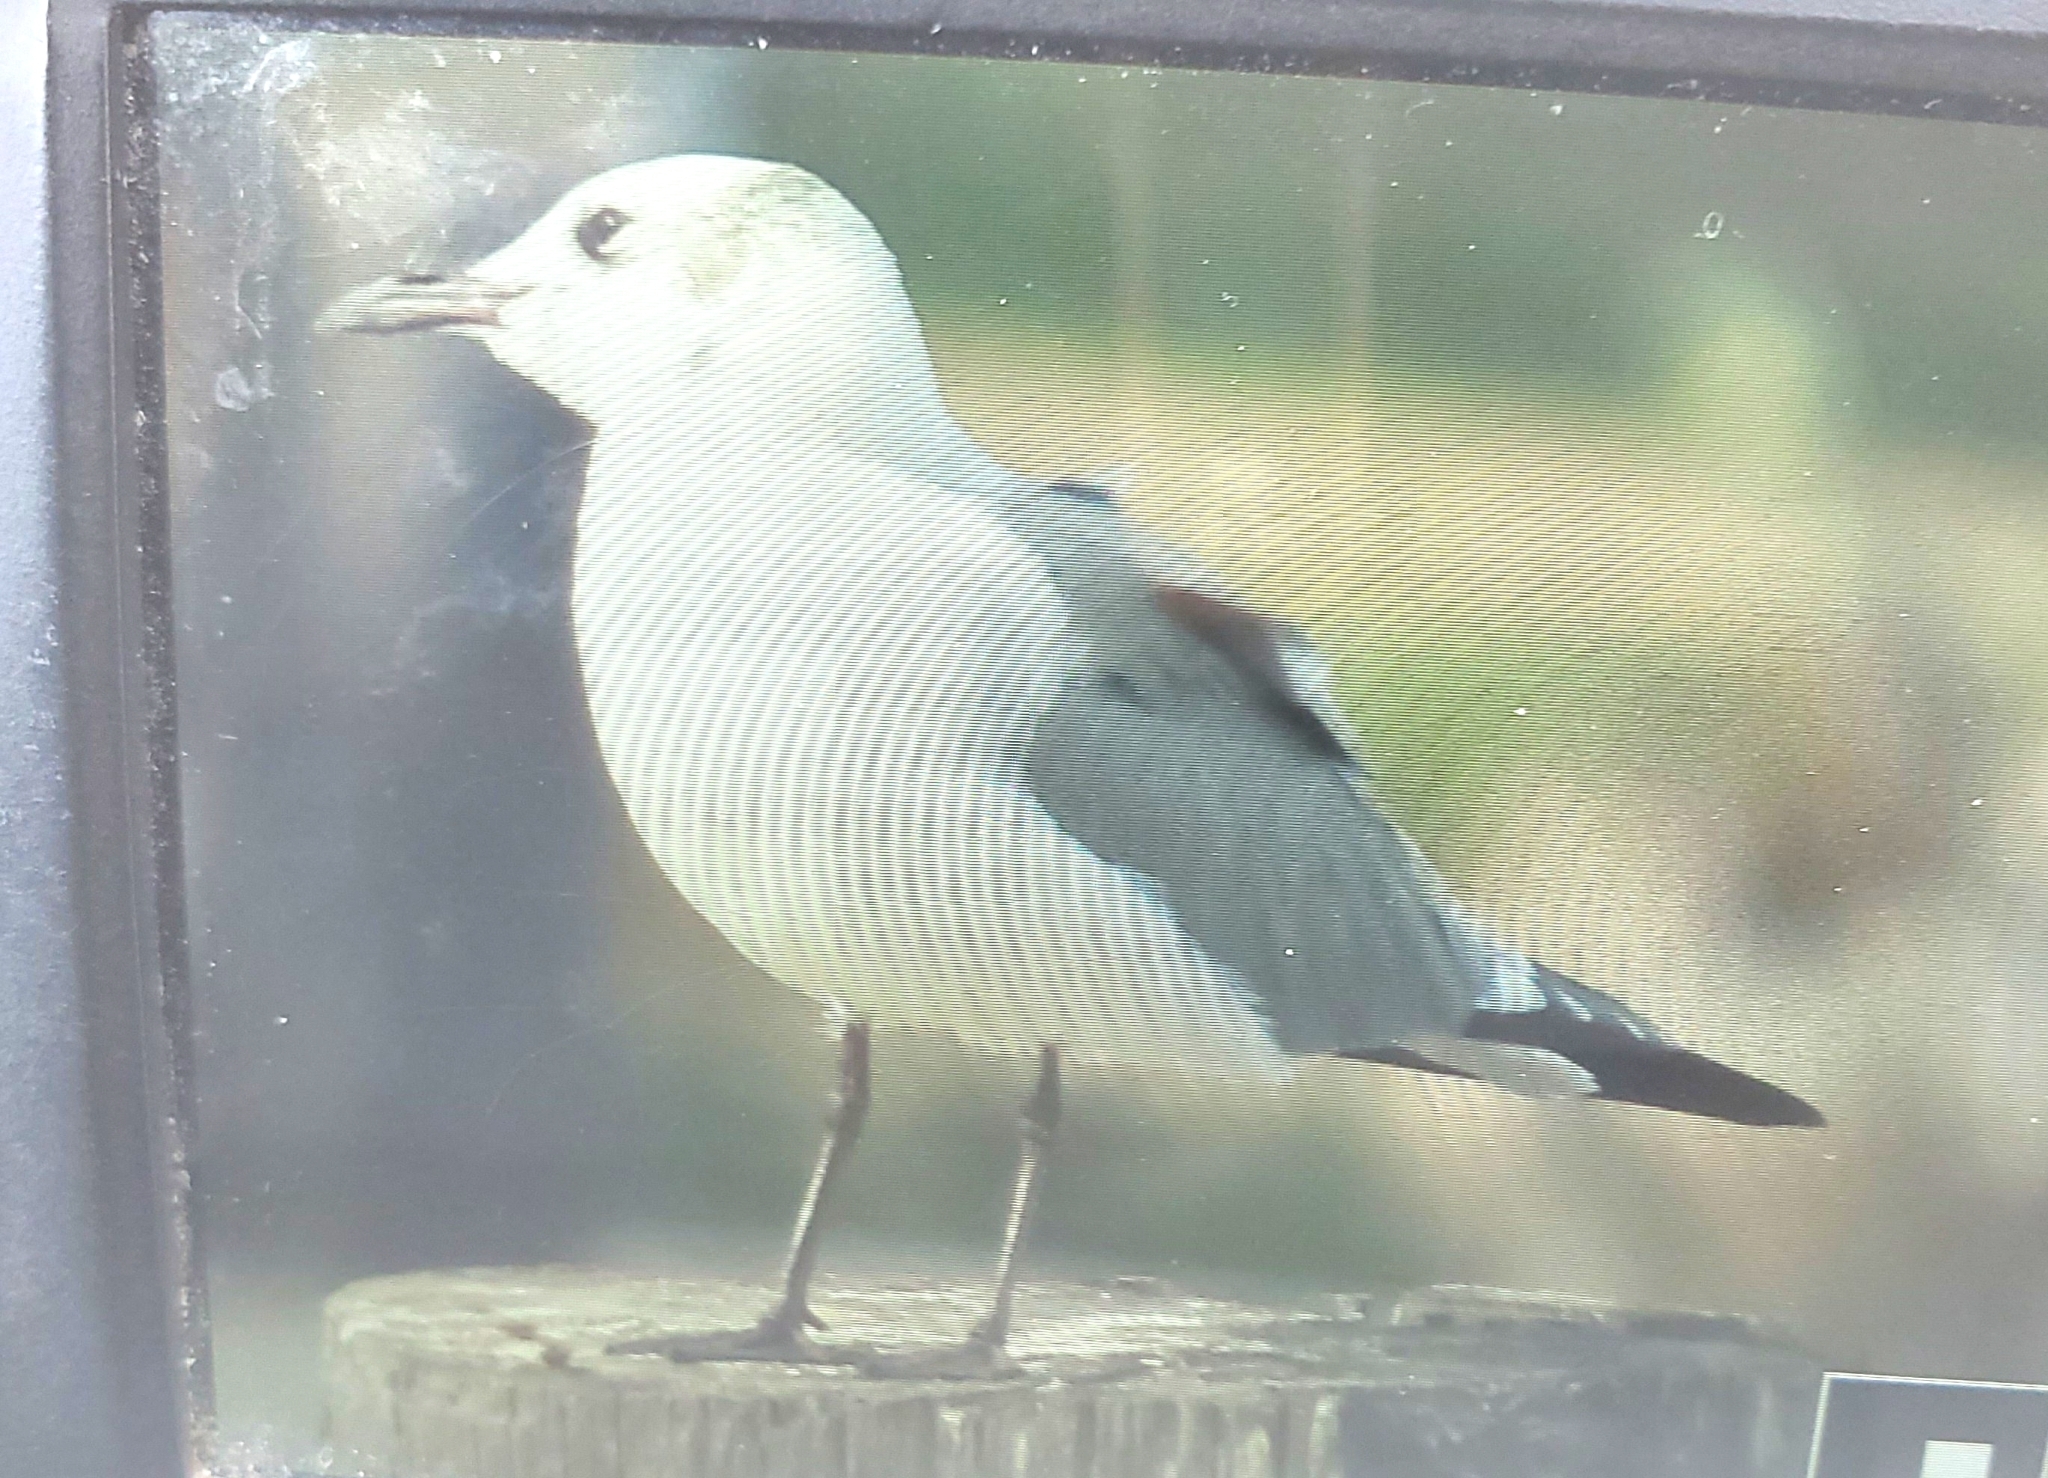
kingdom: Animalia
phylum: Chordata
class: Aves
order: Charadriiformes
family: Laridae
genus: Leucophaeus
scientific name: Leucophaeus atricilla
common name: Laughing gull
